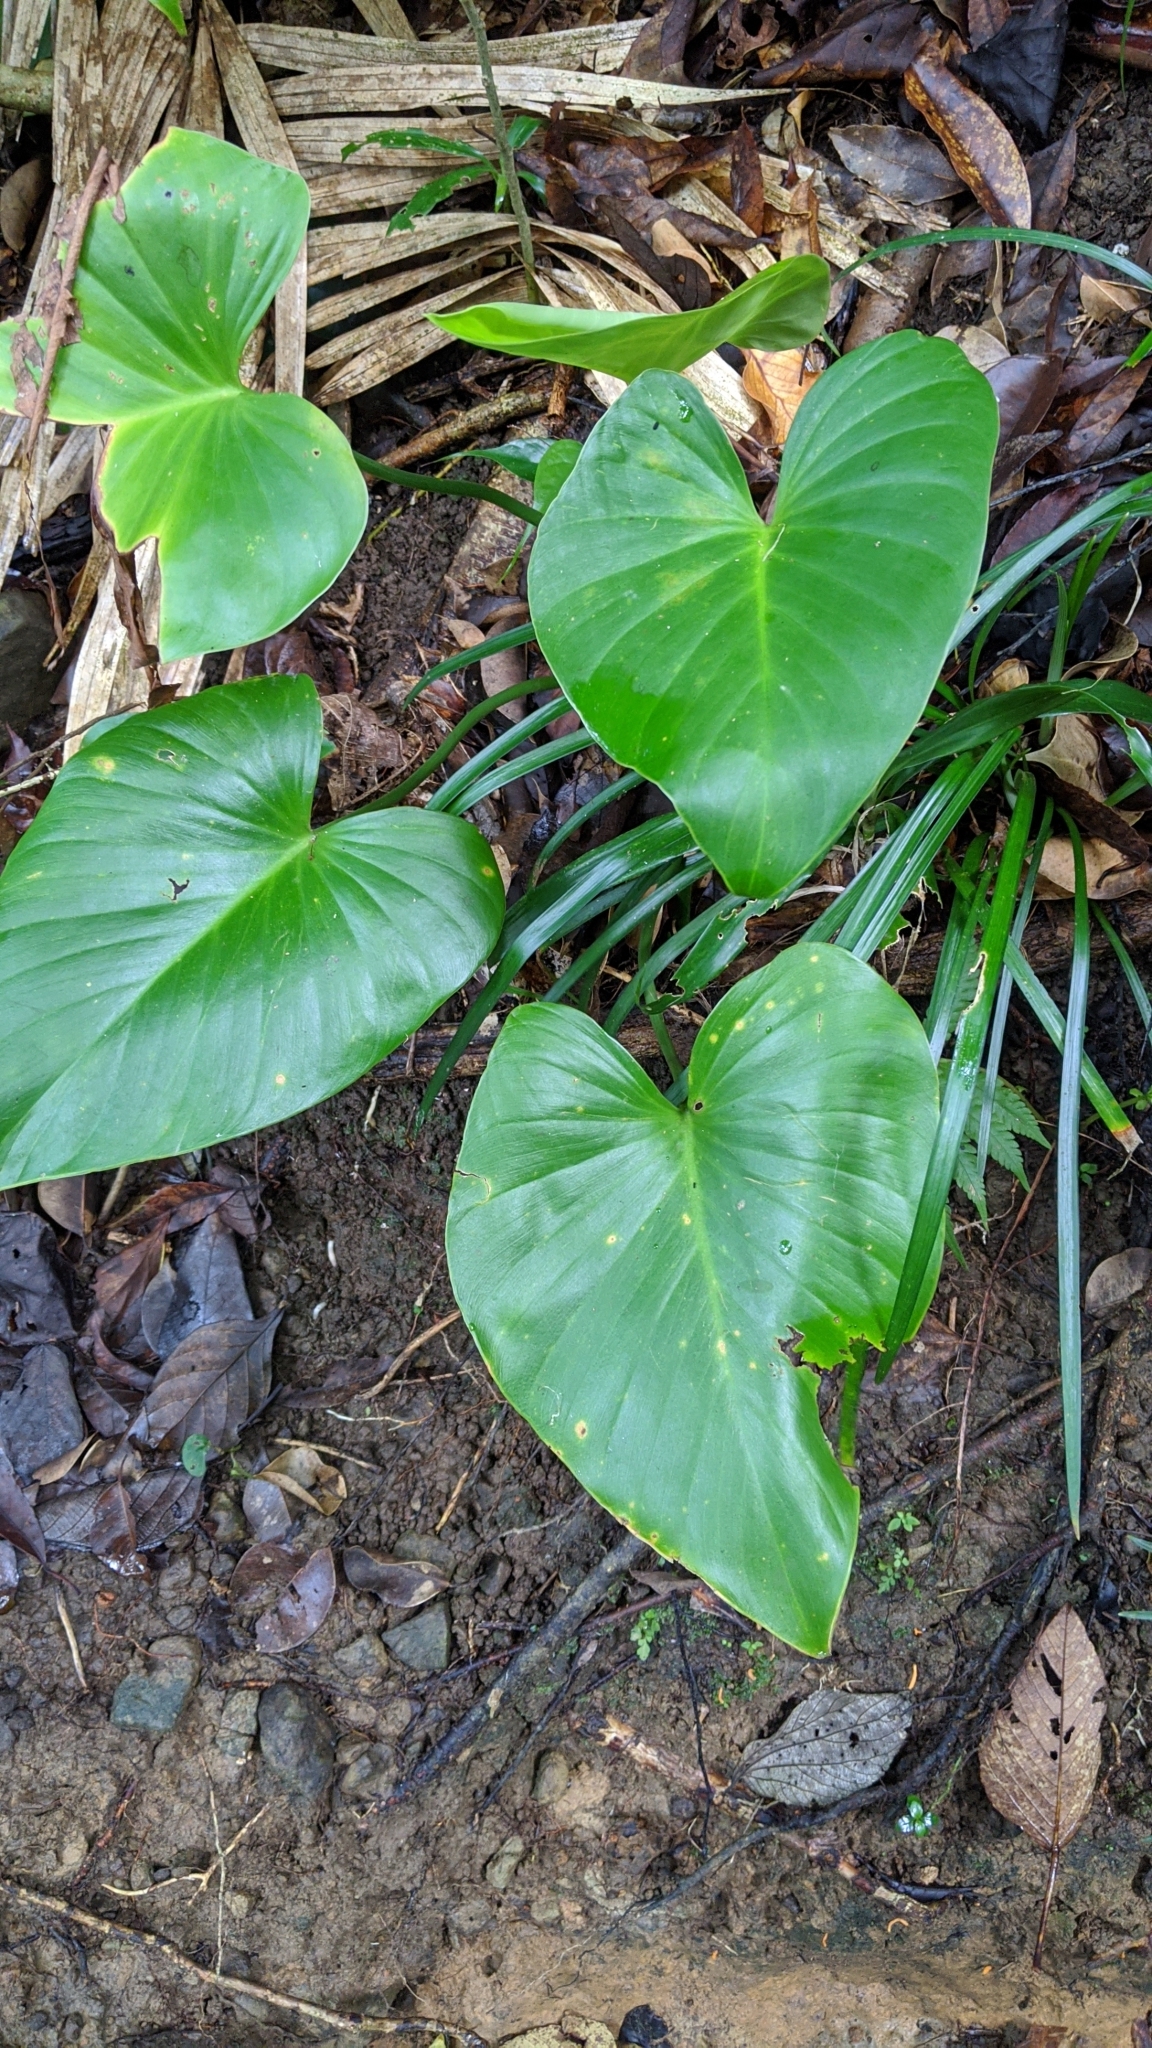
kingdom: Plantae
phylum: Tracheophyta
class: Liliopsida
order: Alismatales
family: Araceae
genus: Homalomena
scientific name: Homalomena philippinensis
